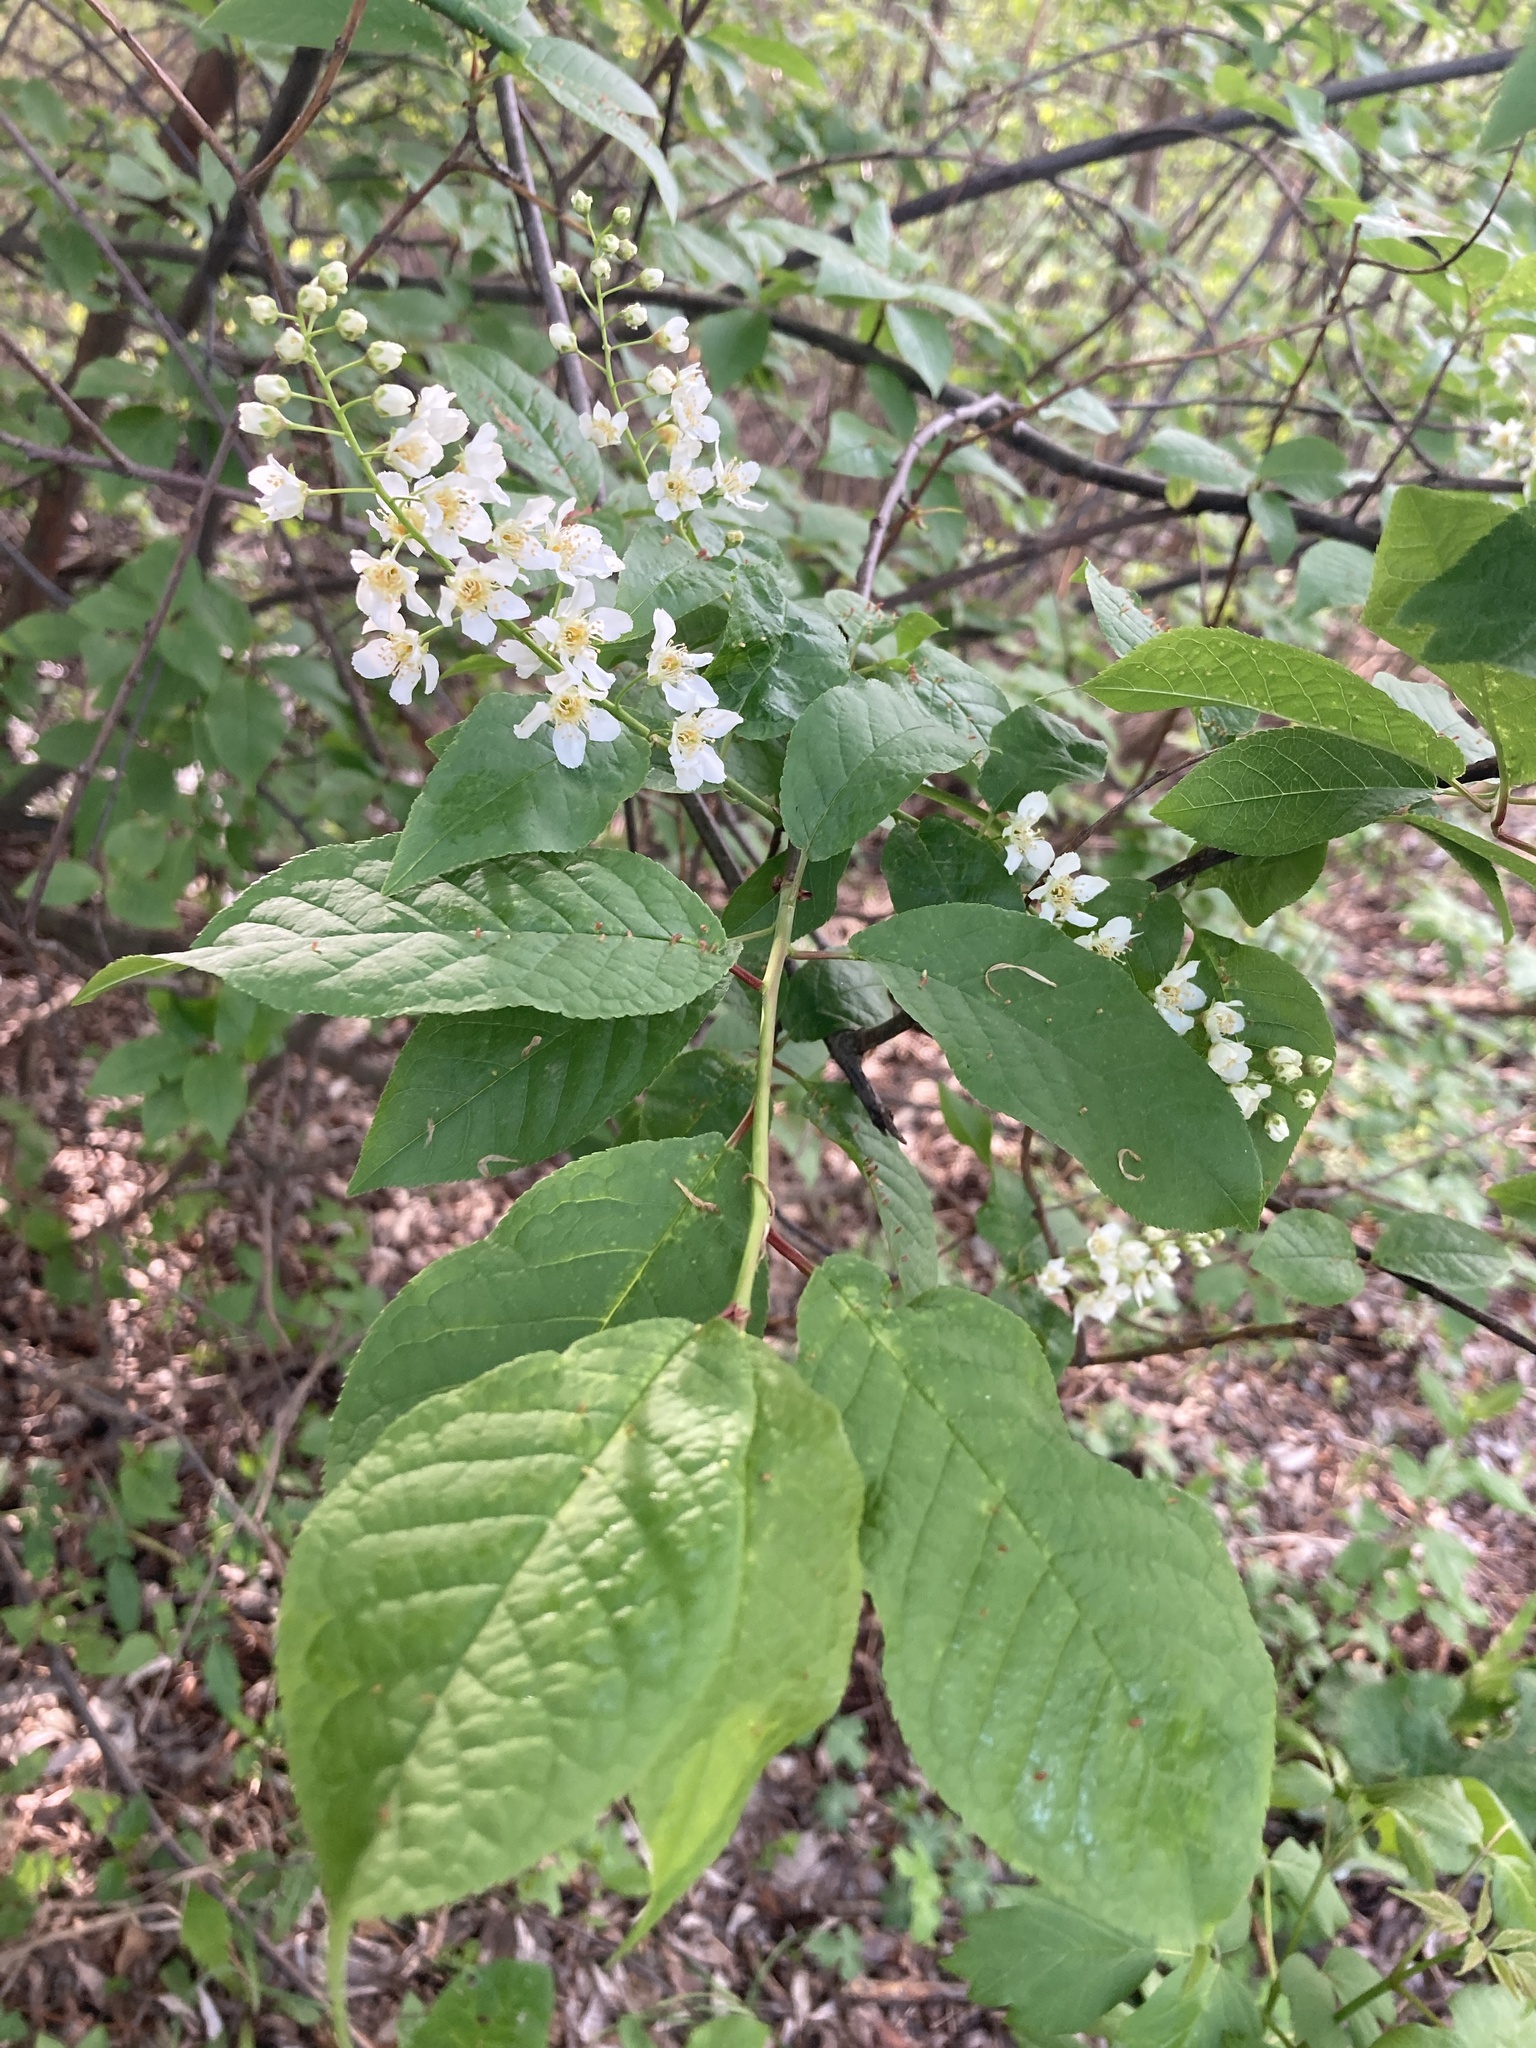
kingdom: Plantae
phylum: Tracheophyta
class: Magnoliopsida
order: Rosales
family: Rosaceae
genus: Prunus
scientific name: Prunus padus
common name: Bird cherry
